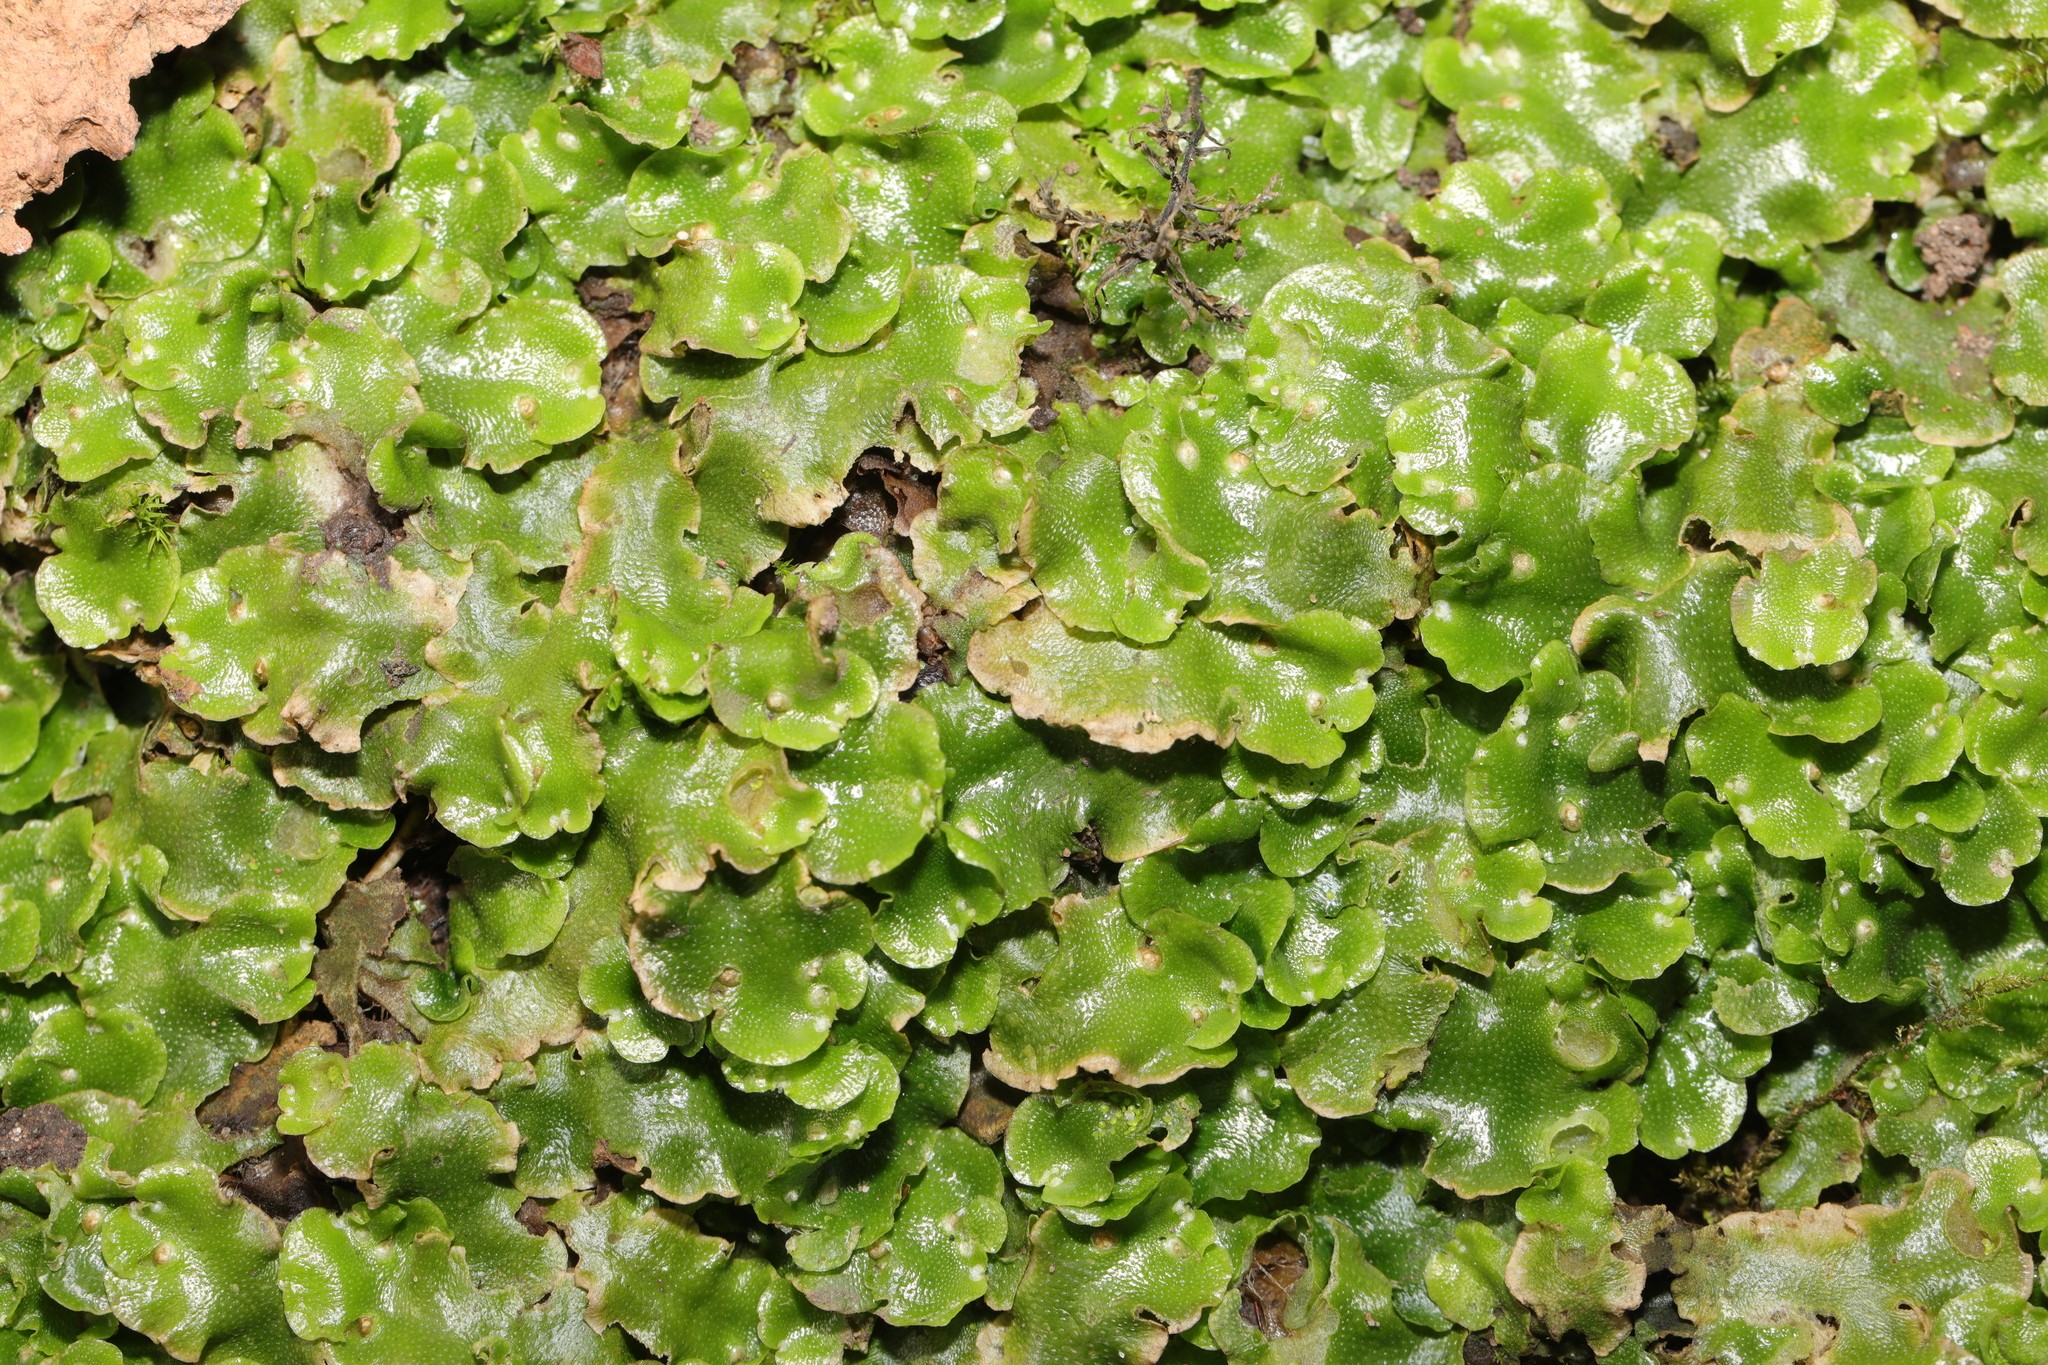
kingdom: Plantae
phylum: Marchantiophyta
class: Marchantiopsida
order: Lunulariales
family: Lunulariaceae
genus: Lunularia
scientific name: Lunularia cruciata
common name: Crescent-cup liverwort
